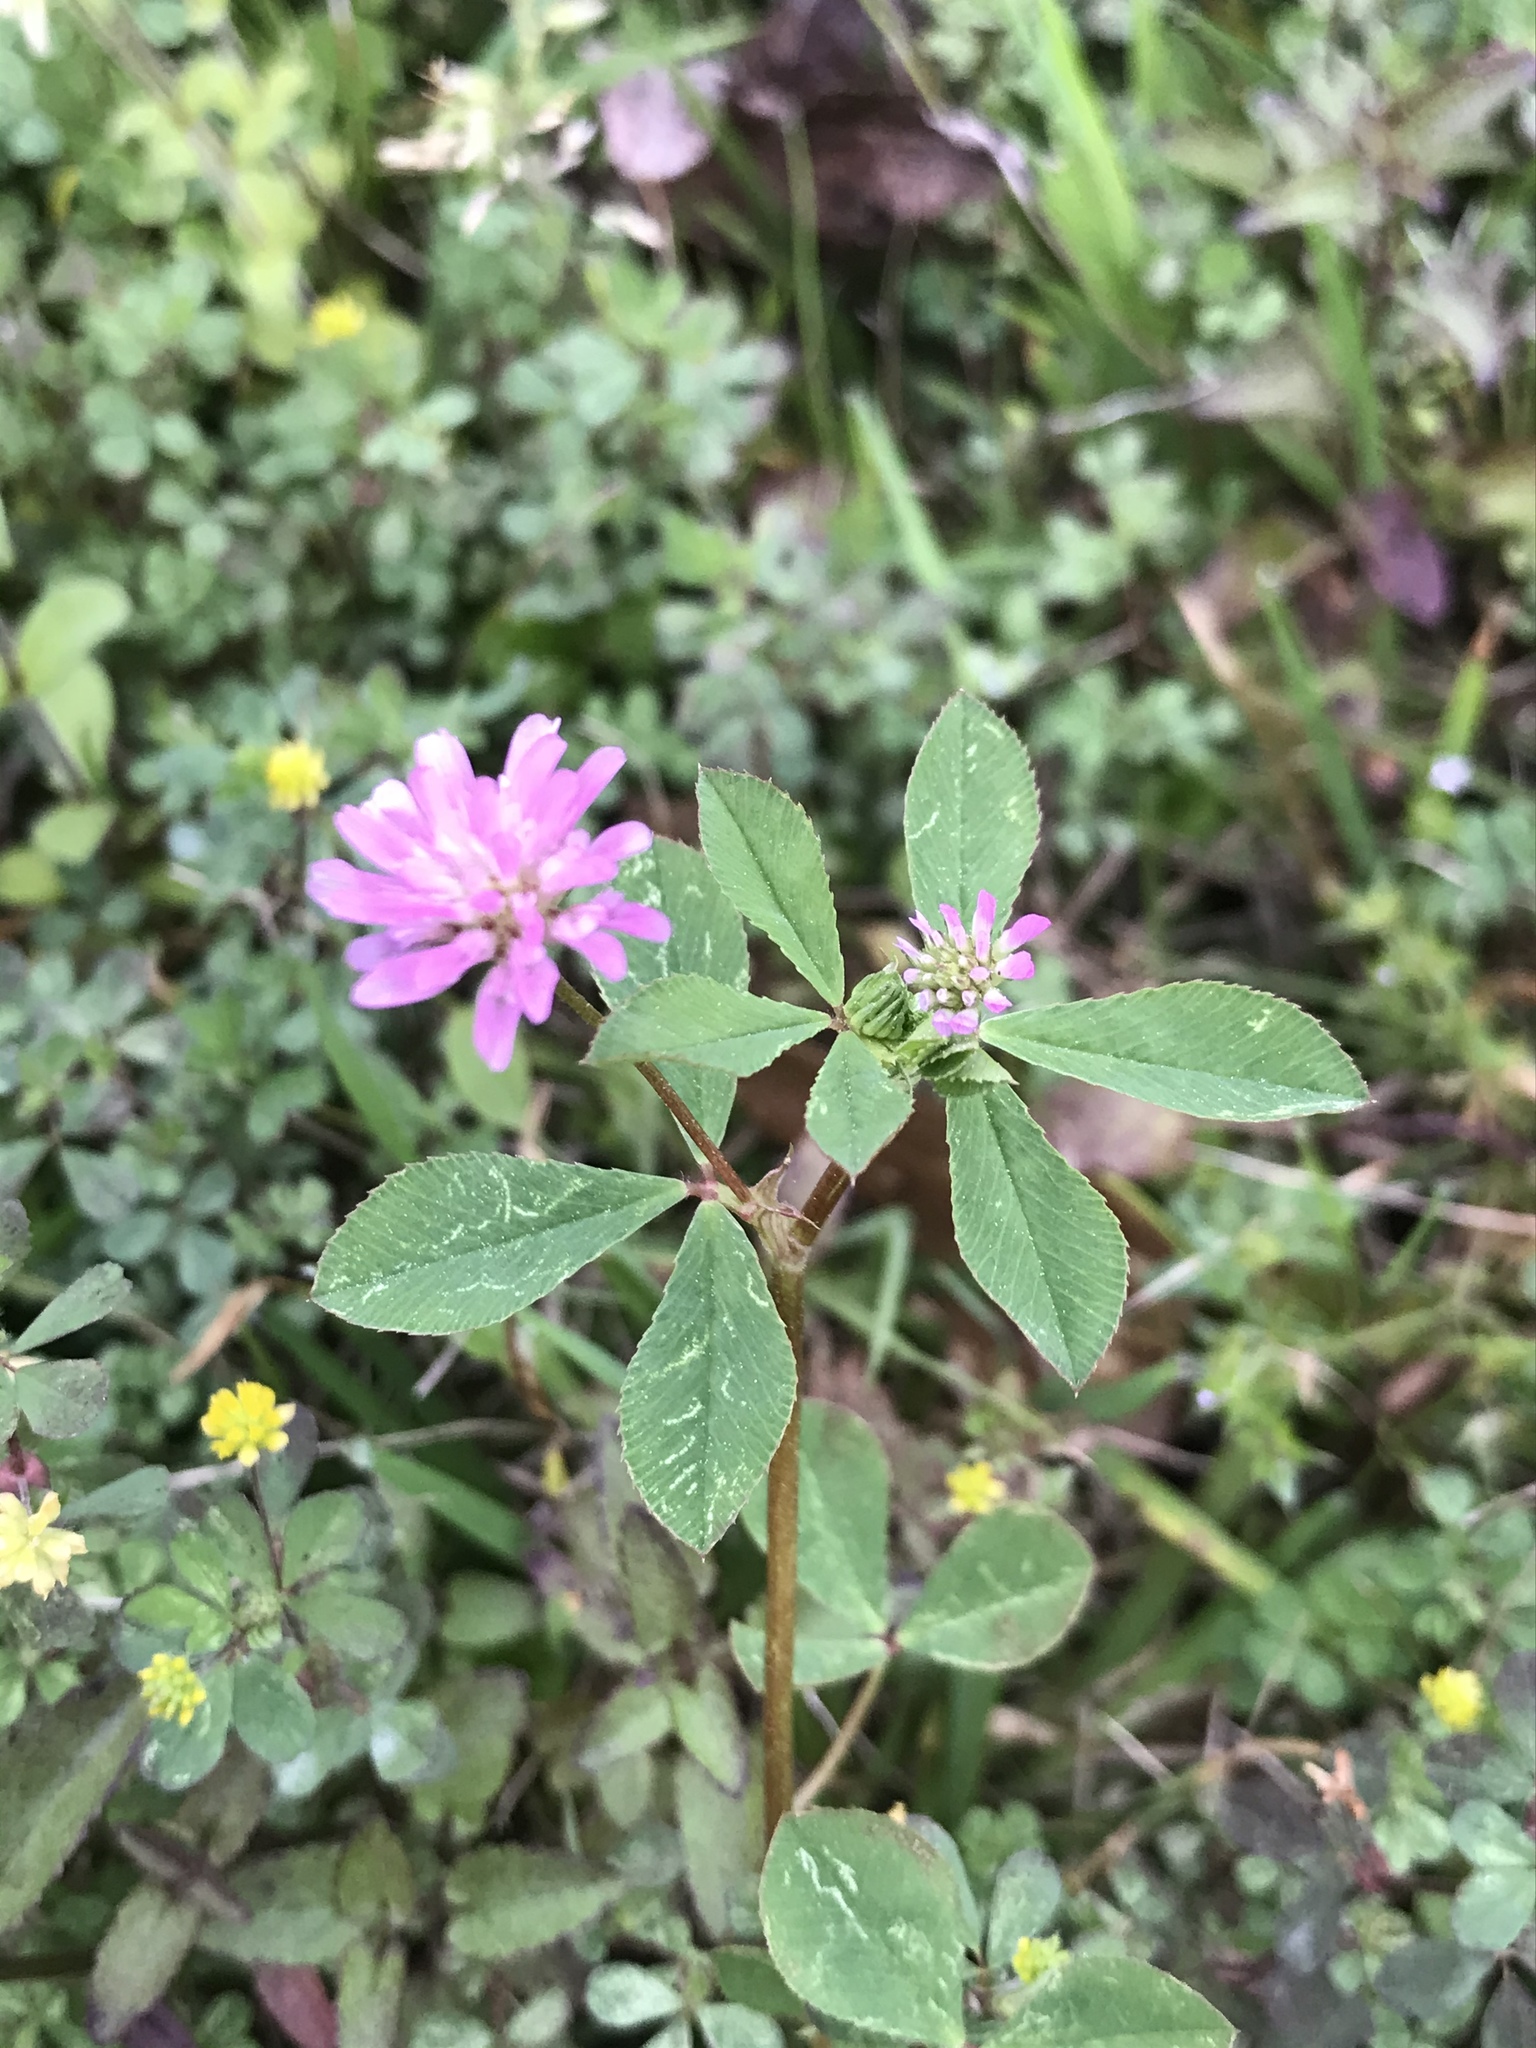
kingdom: Plantae
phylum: Tracheophyta
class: Magnoliopsida
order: Fabales
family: Fabaceae
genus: Trifolium
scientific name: Trifolium resupinatum
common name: Reversed clover
